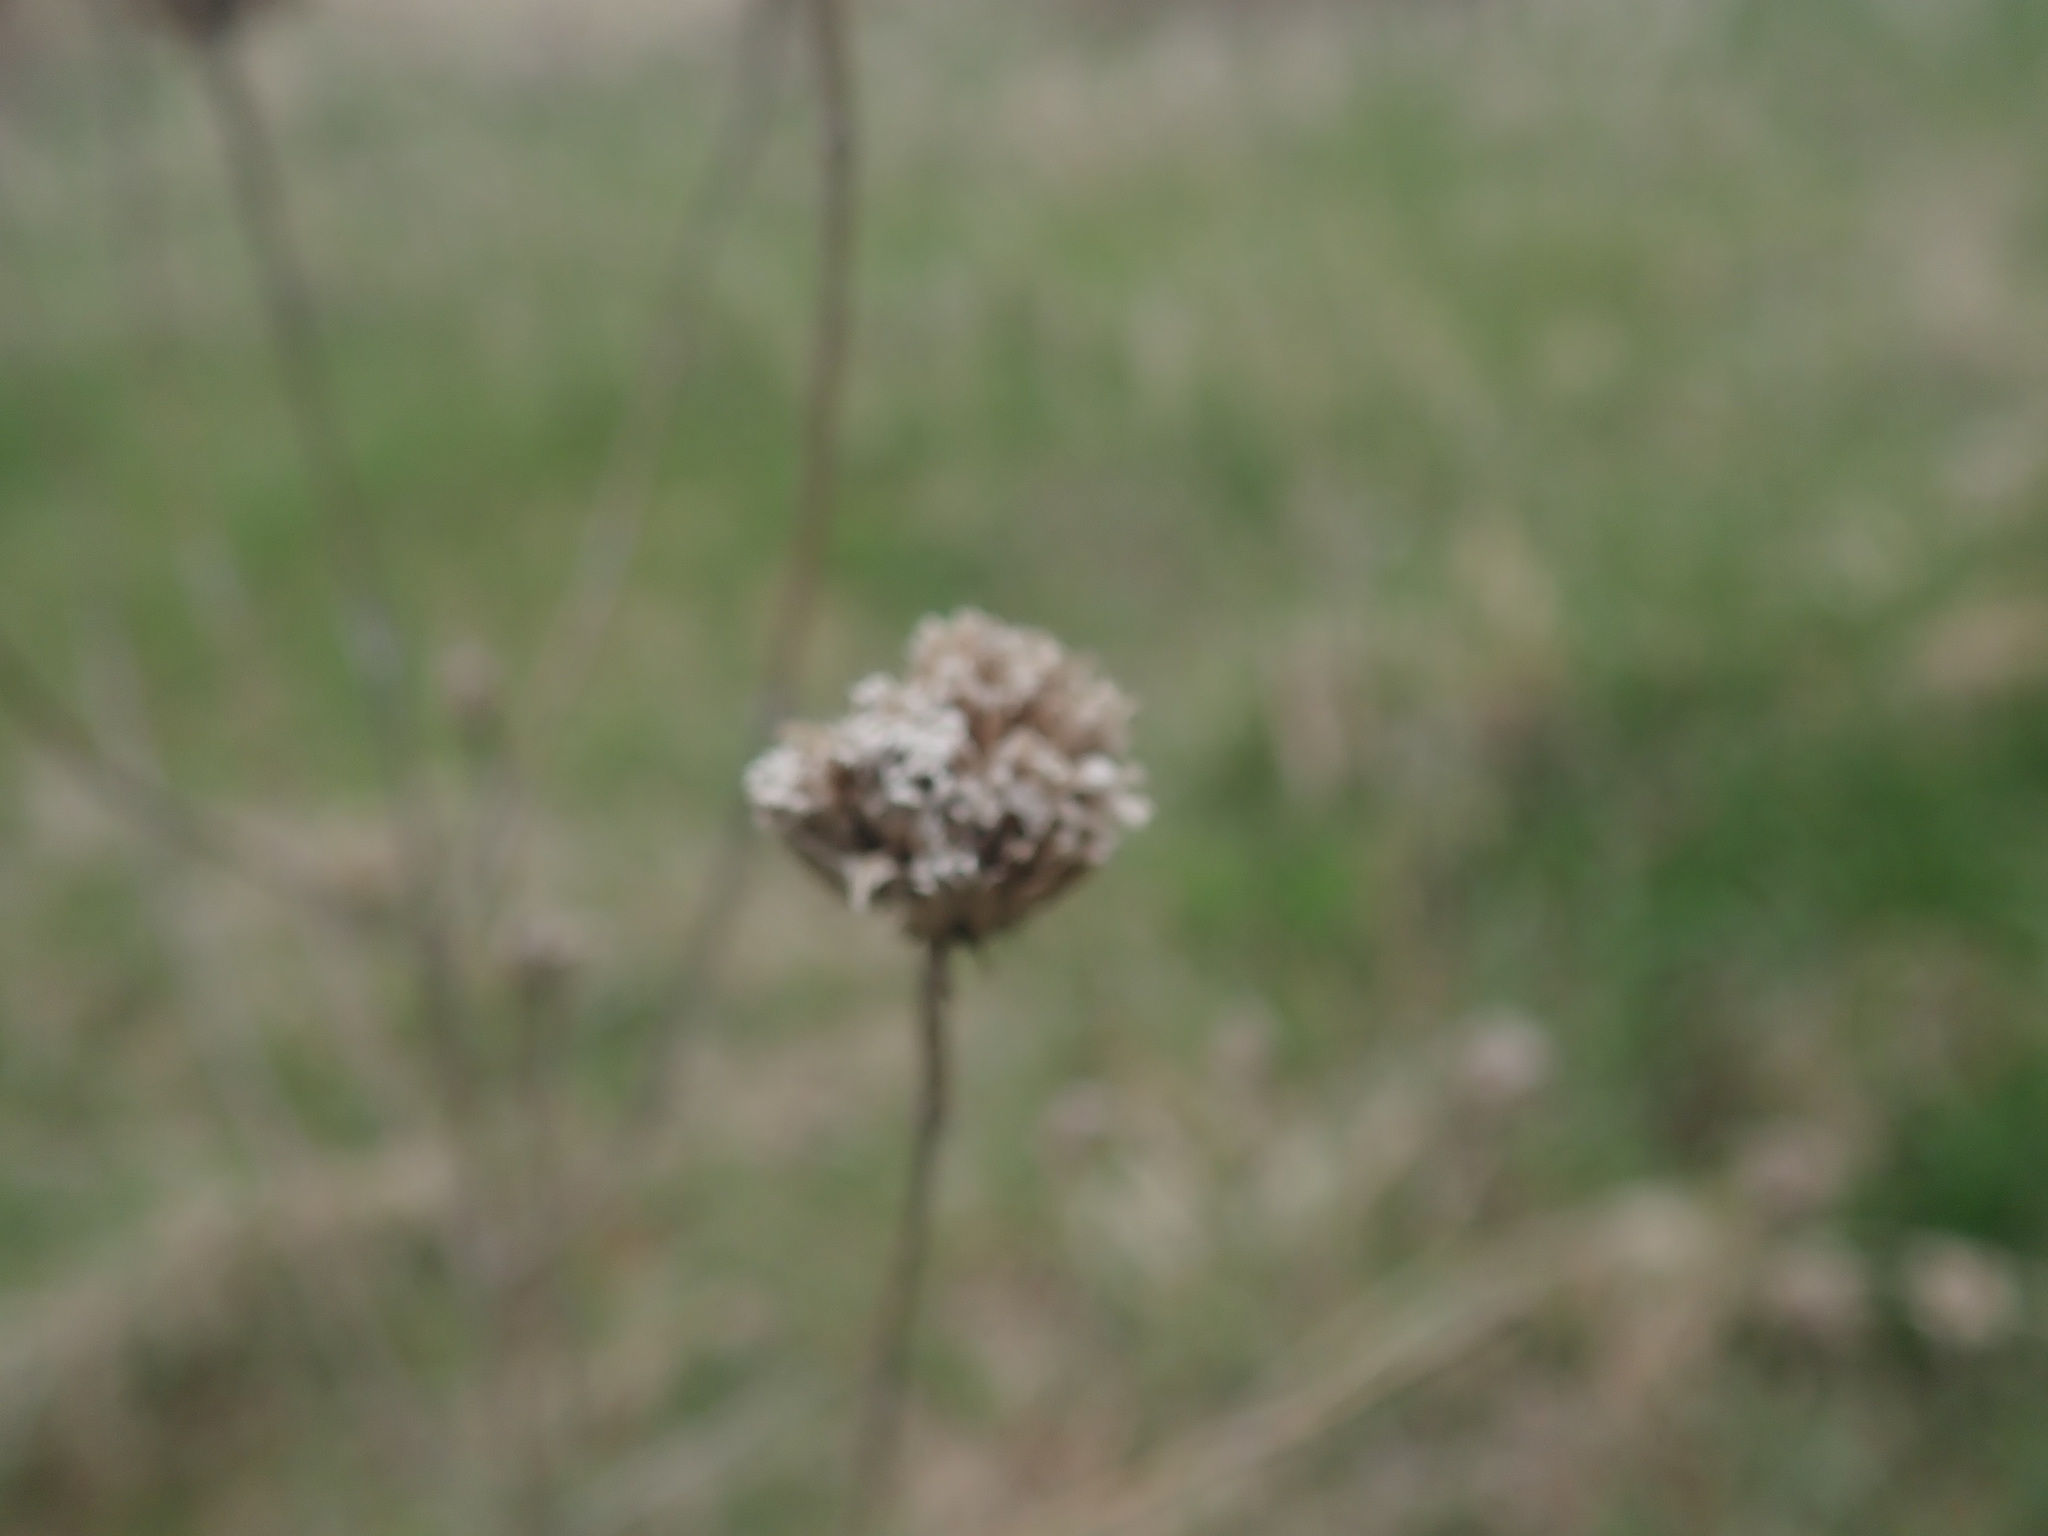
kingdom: Plantae
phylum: Tracheophyta
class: Magnoliopsida
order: Lamiales
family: Lamiaceae
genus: Monarda
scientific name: Monarda fistulosa
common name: Purple beebalm
